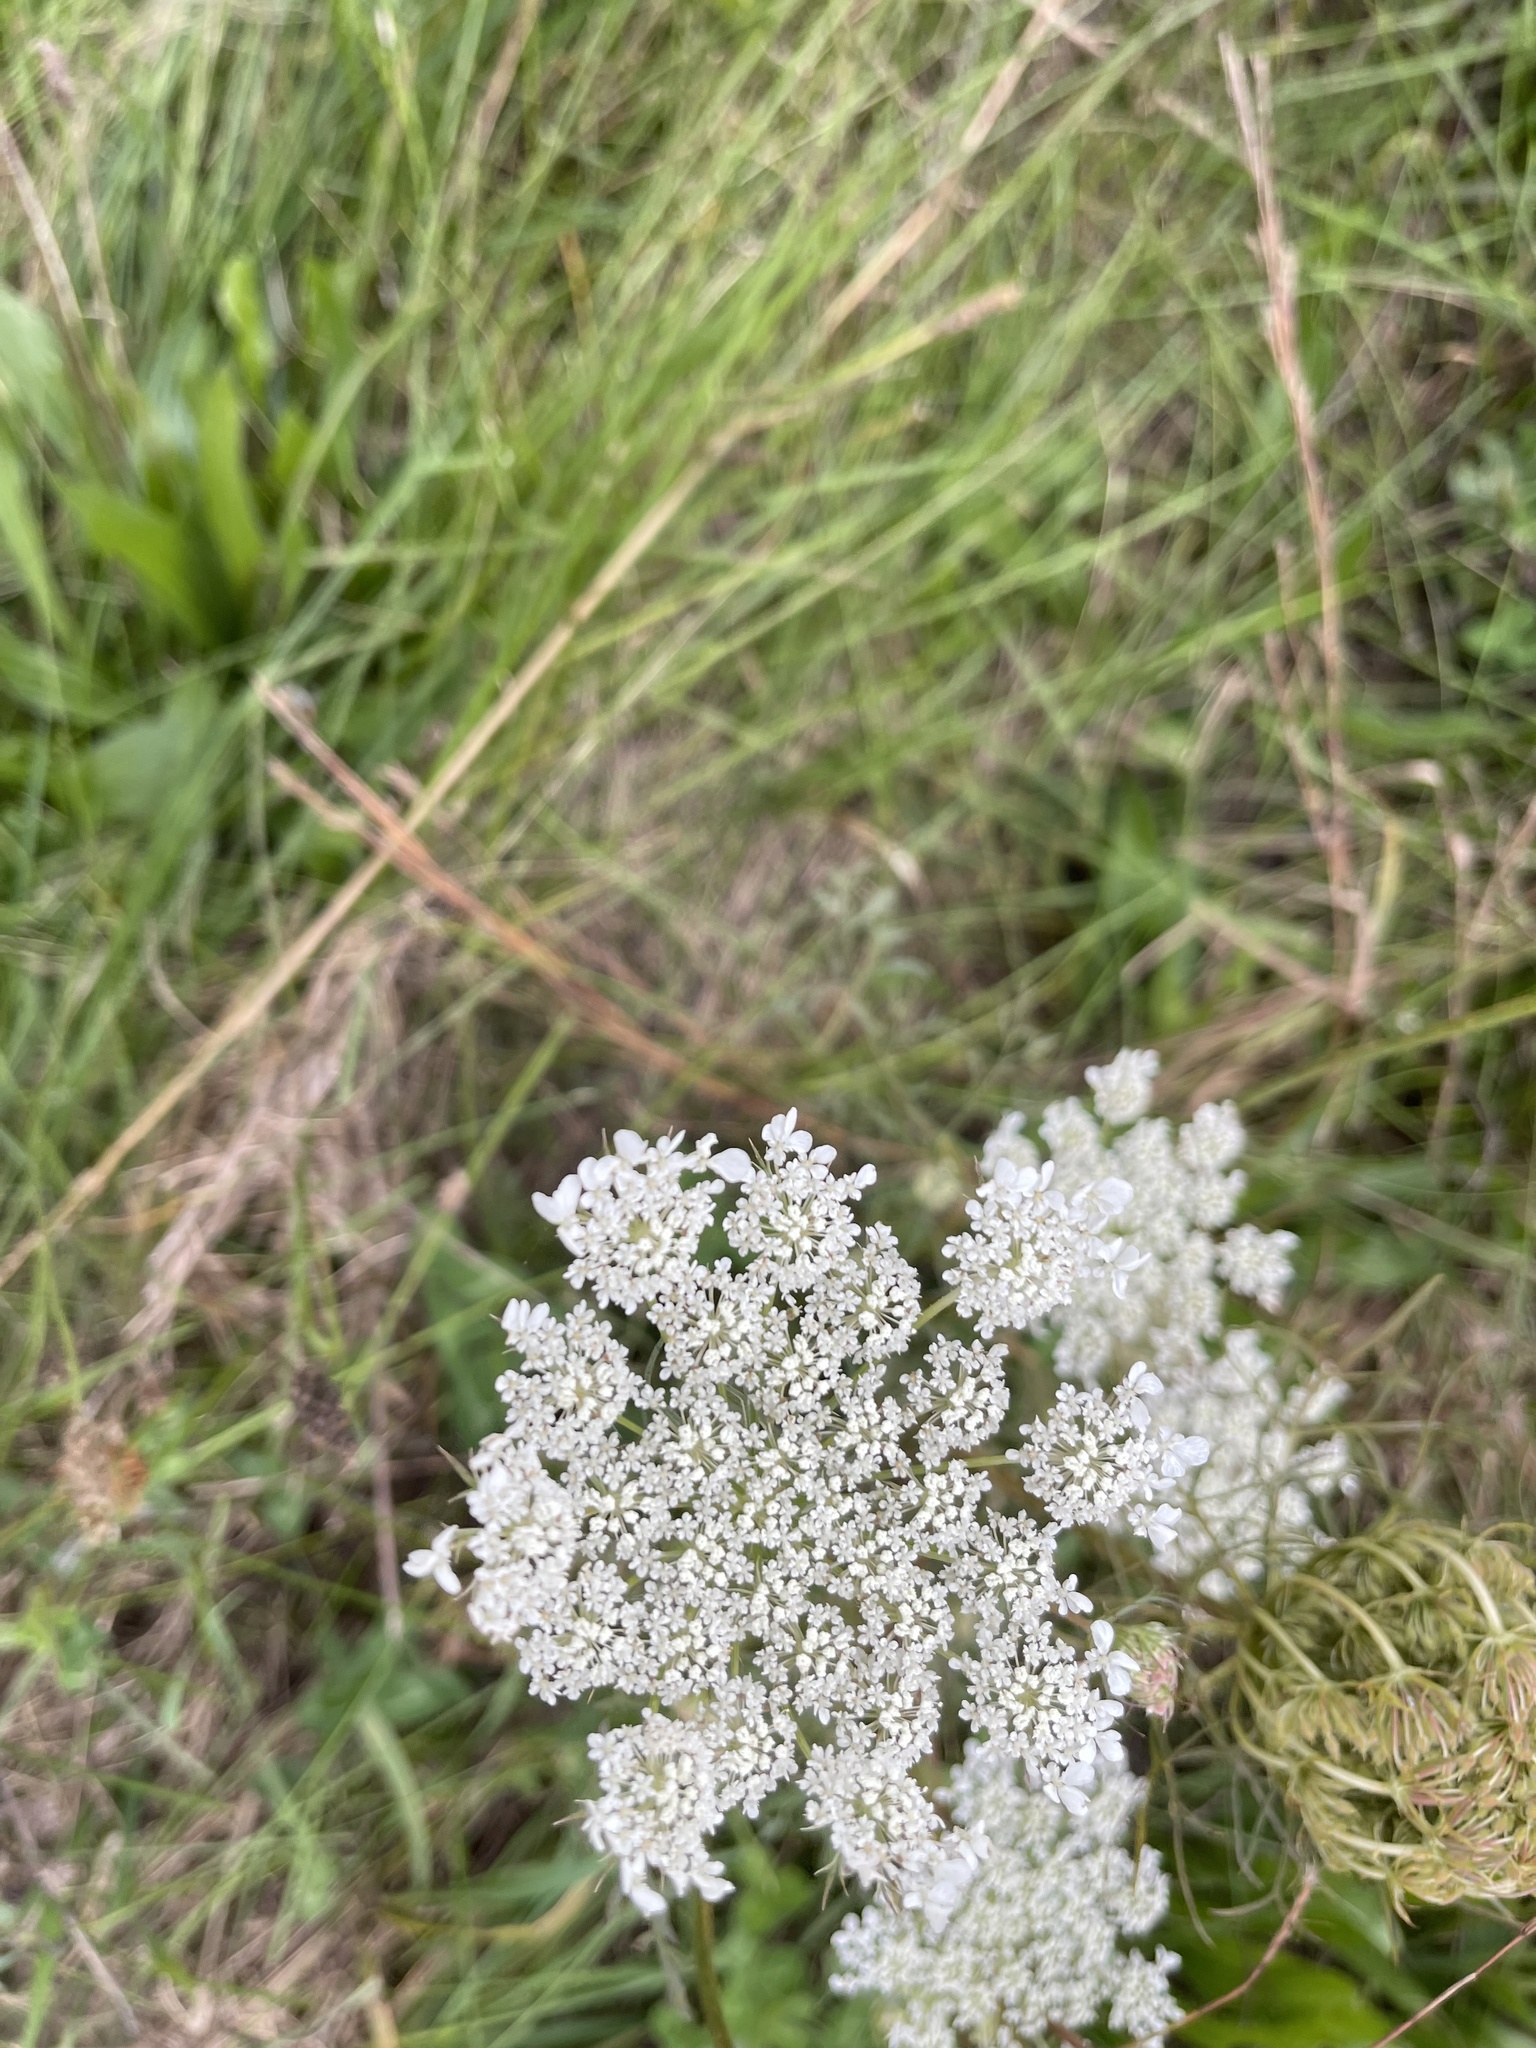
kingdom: Plantae
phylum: Tracheophyta
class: Magnoliopsida
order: Apiales
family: Apiaceae
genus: Daucus
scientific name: Daucus carota
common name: Wild carrot
